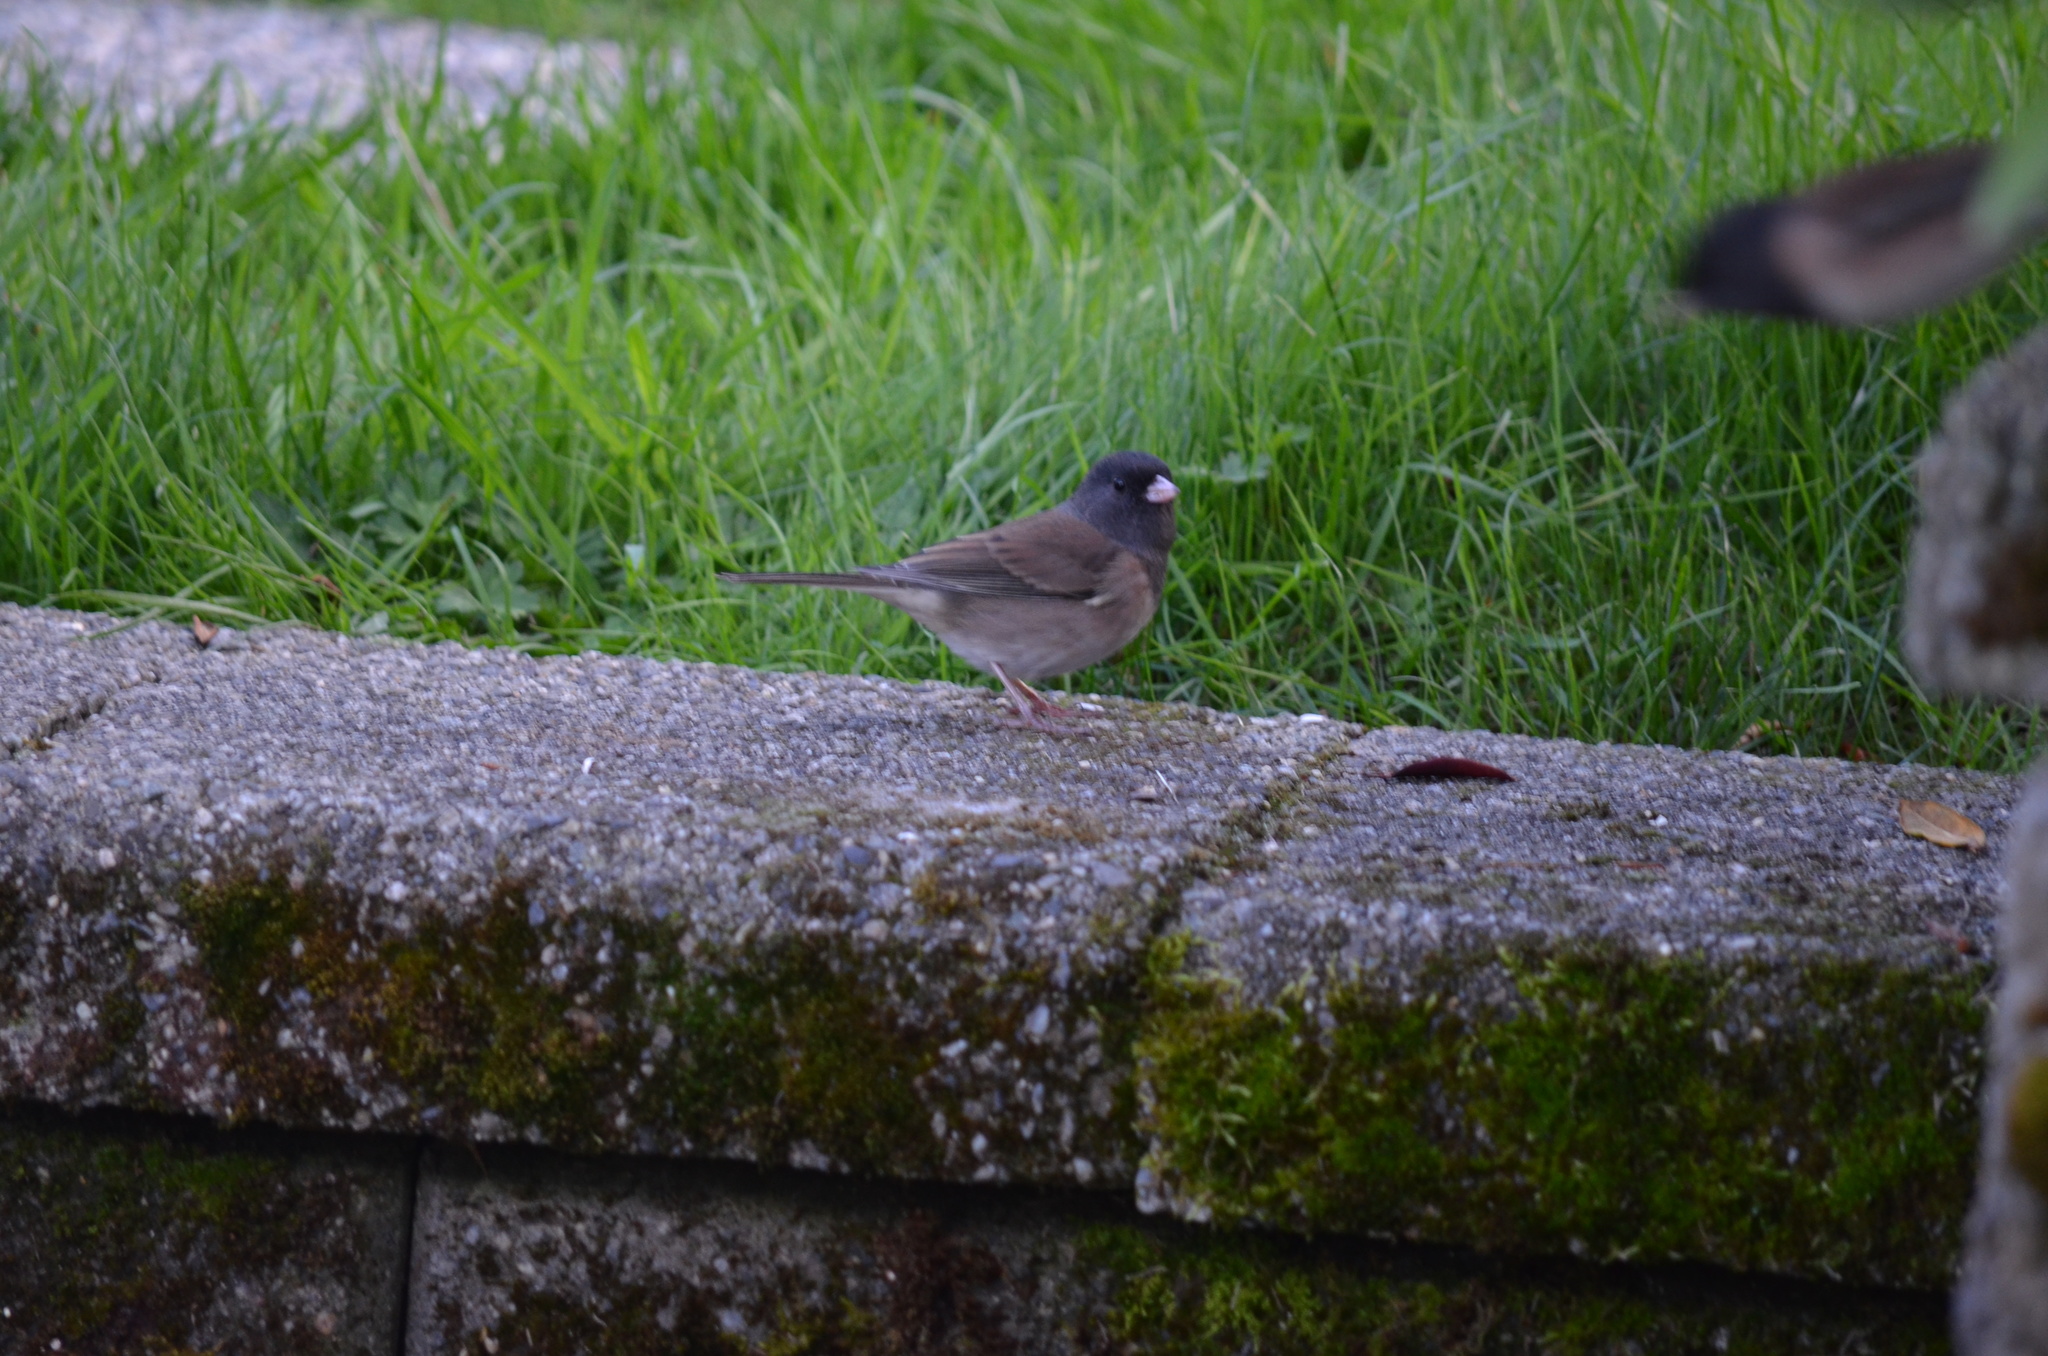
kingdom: Animalia
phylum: Chordata
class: Aves
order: Passeriformes
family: Passerellidae
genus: Junco
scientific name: Junco hyemalis
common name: Dark-eyed junco
